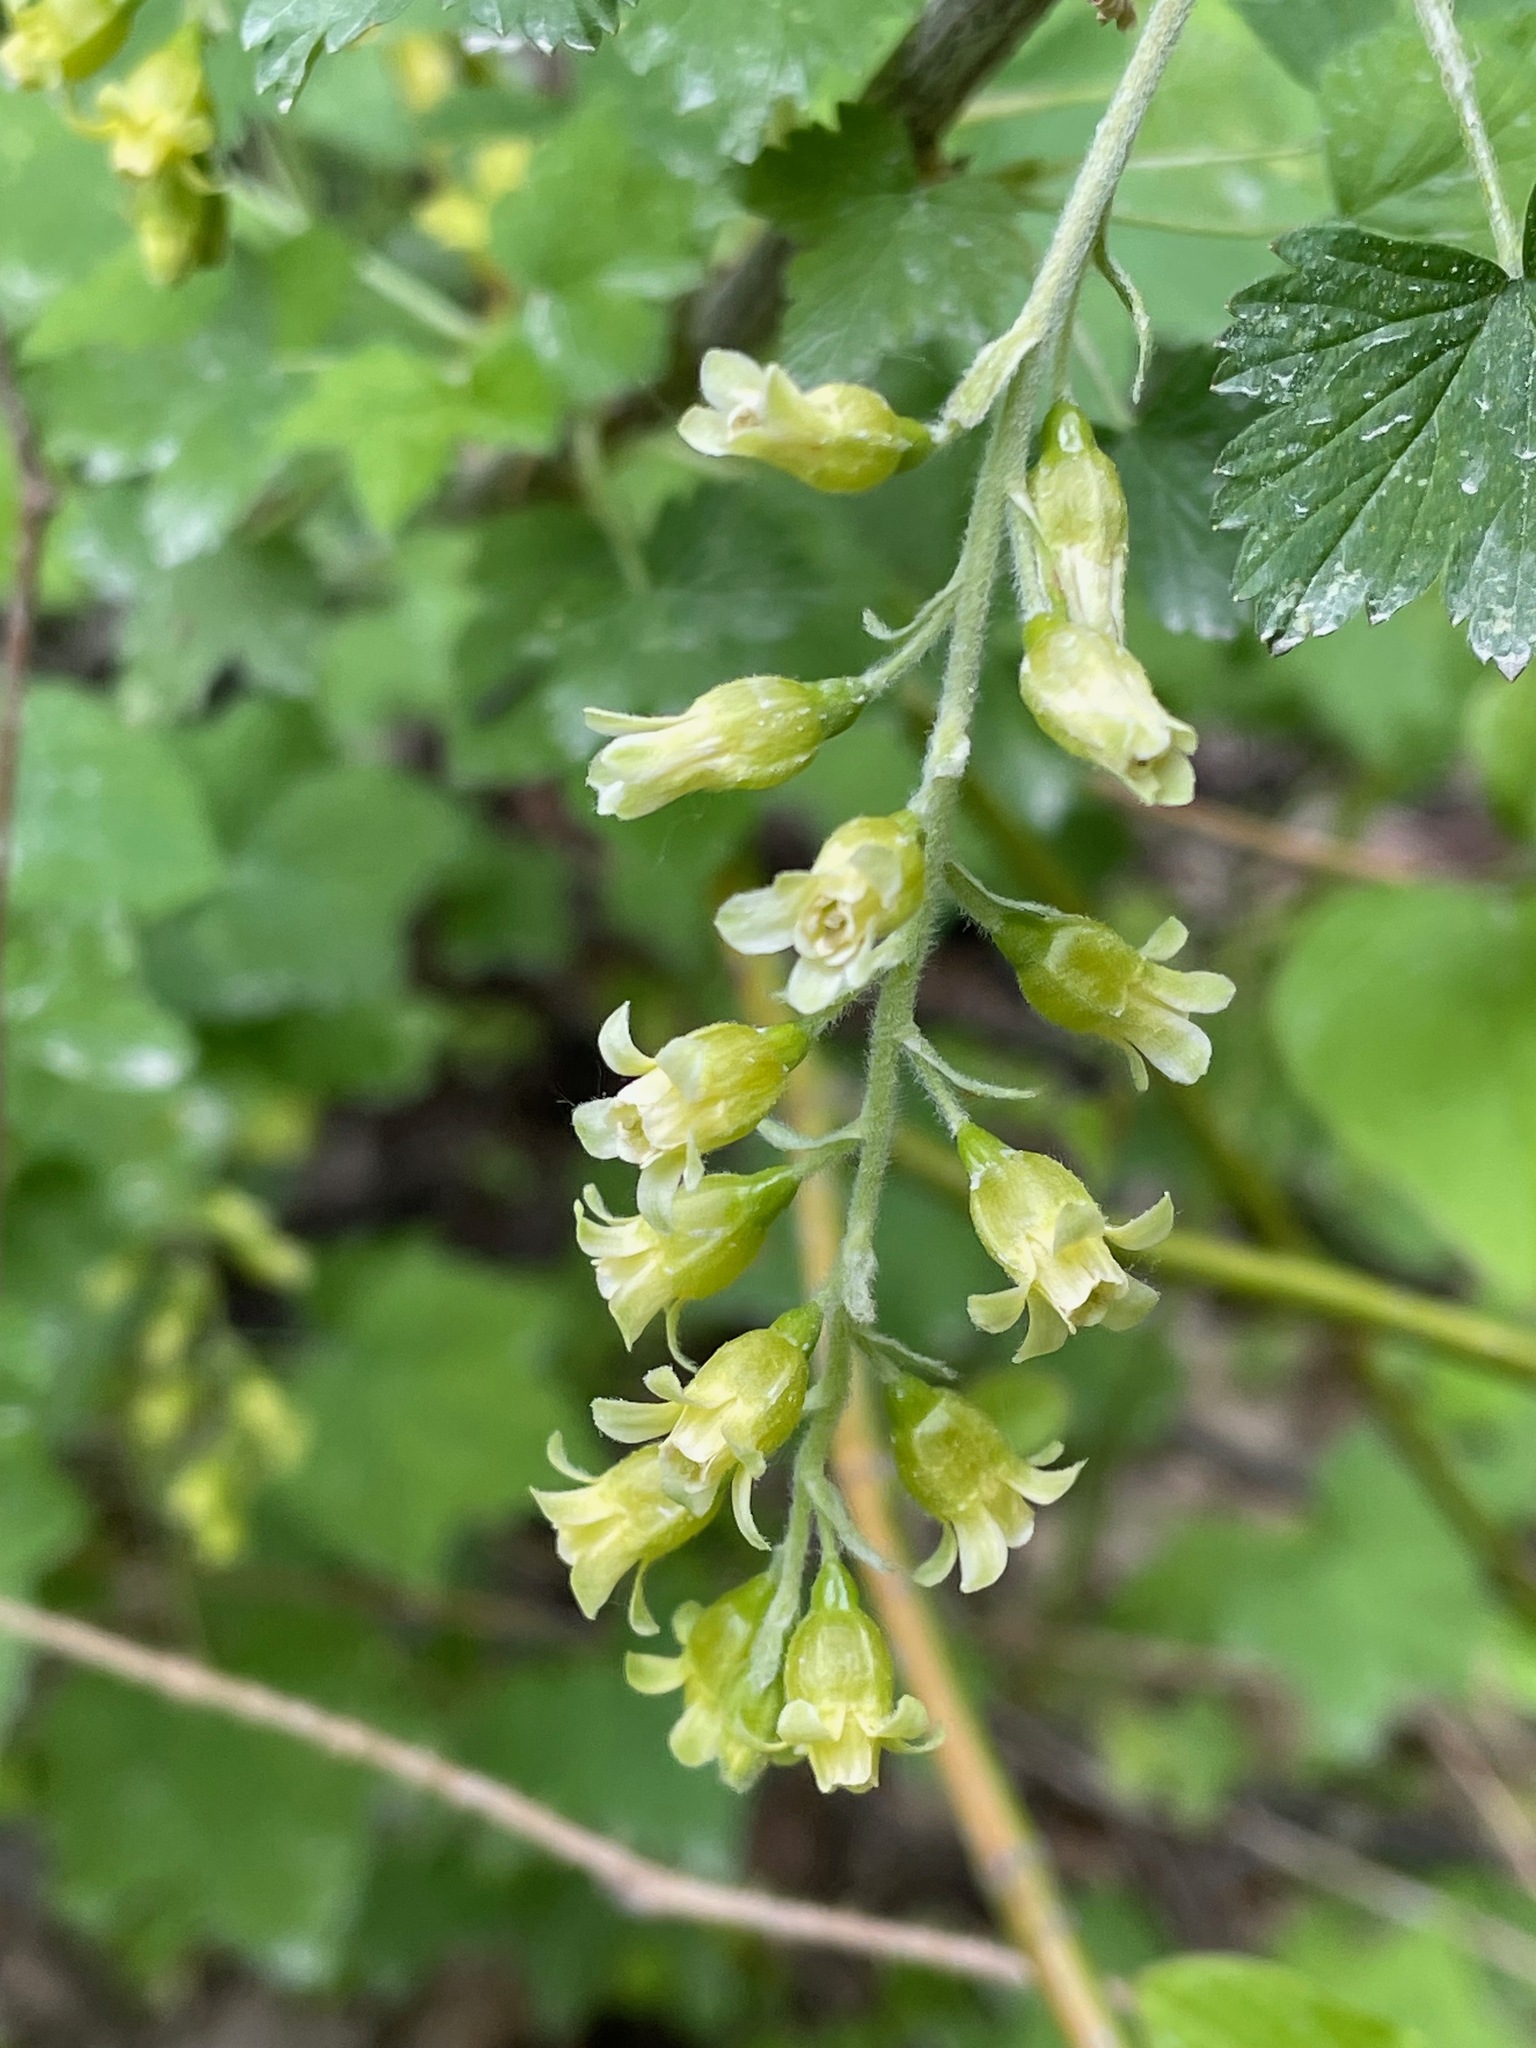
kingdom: Plantae
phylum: Tracheophyta
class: Magnoliopsida
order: Saxifragales
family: Grossulariaceae
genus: Ribes
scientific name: Ribes americanum
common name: American black currant
